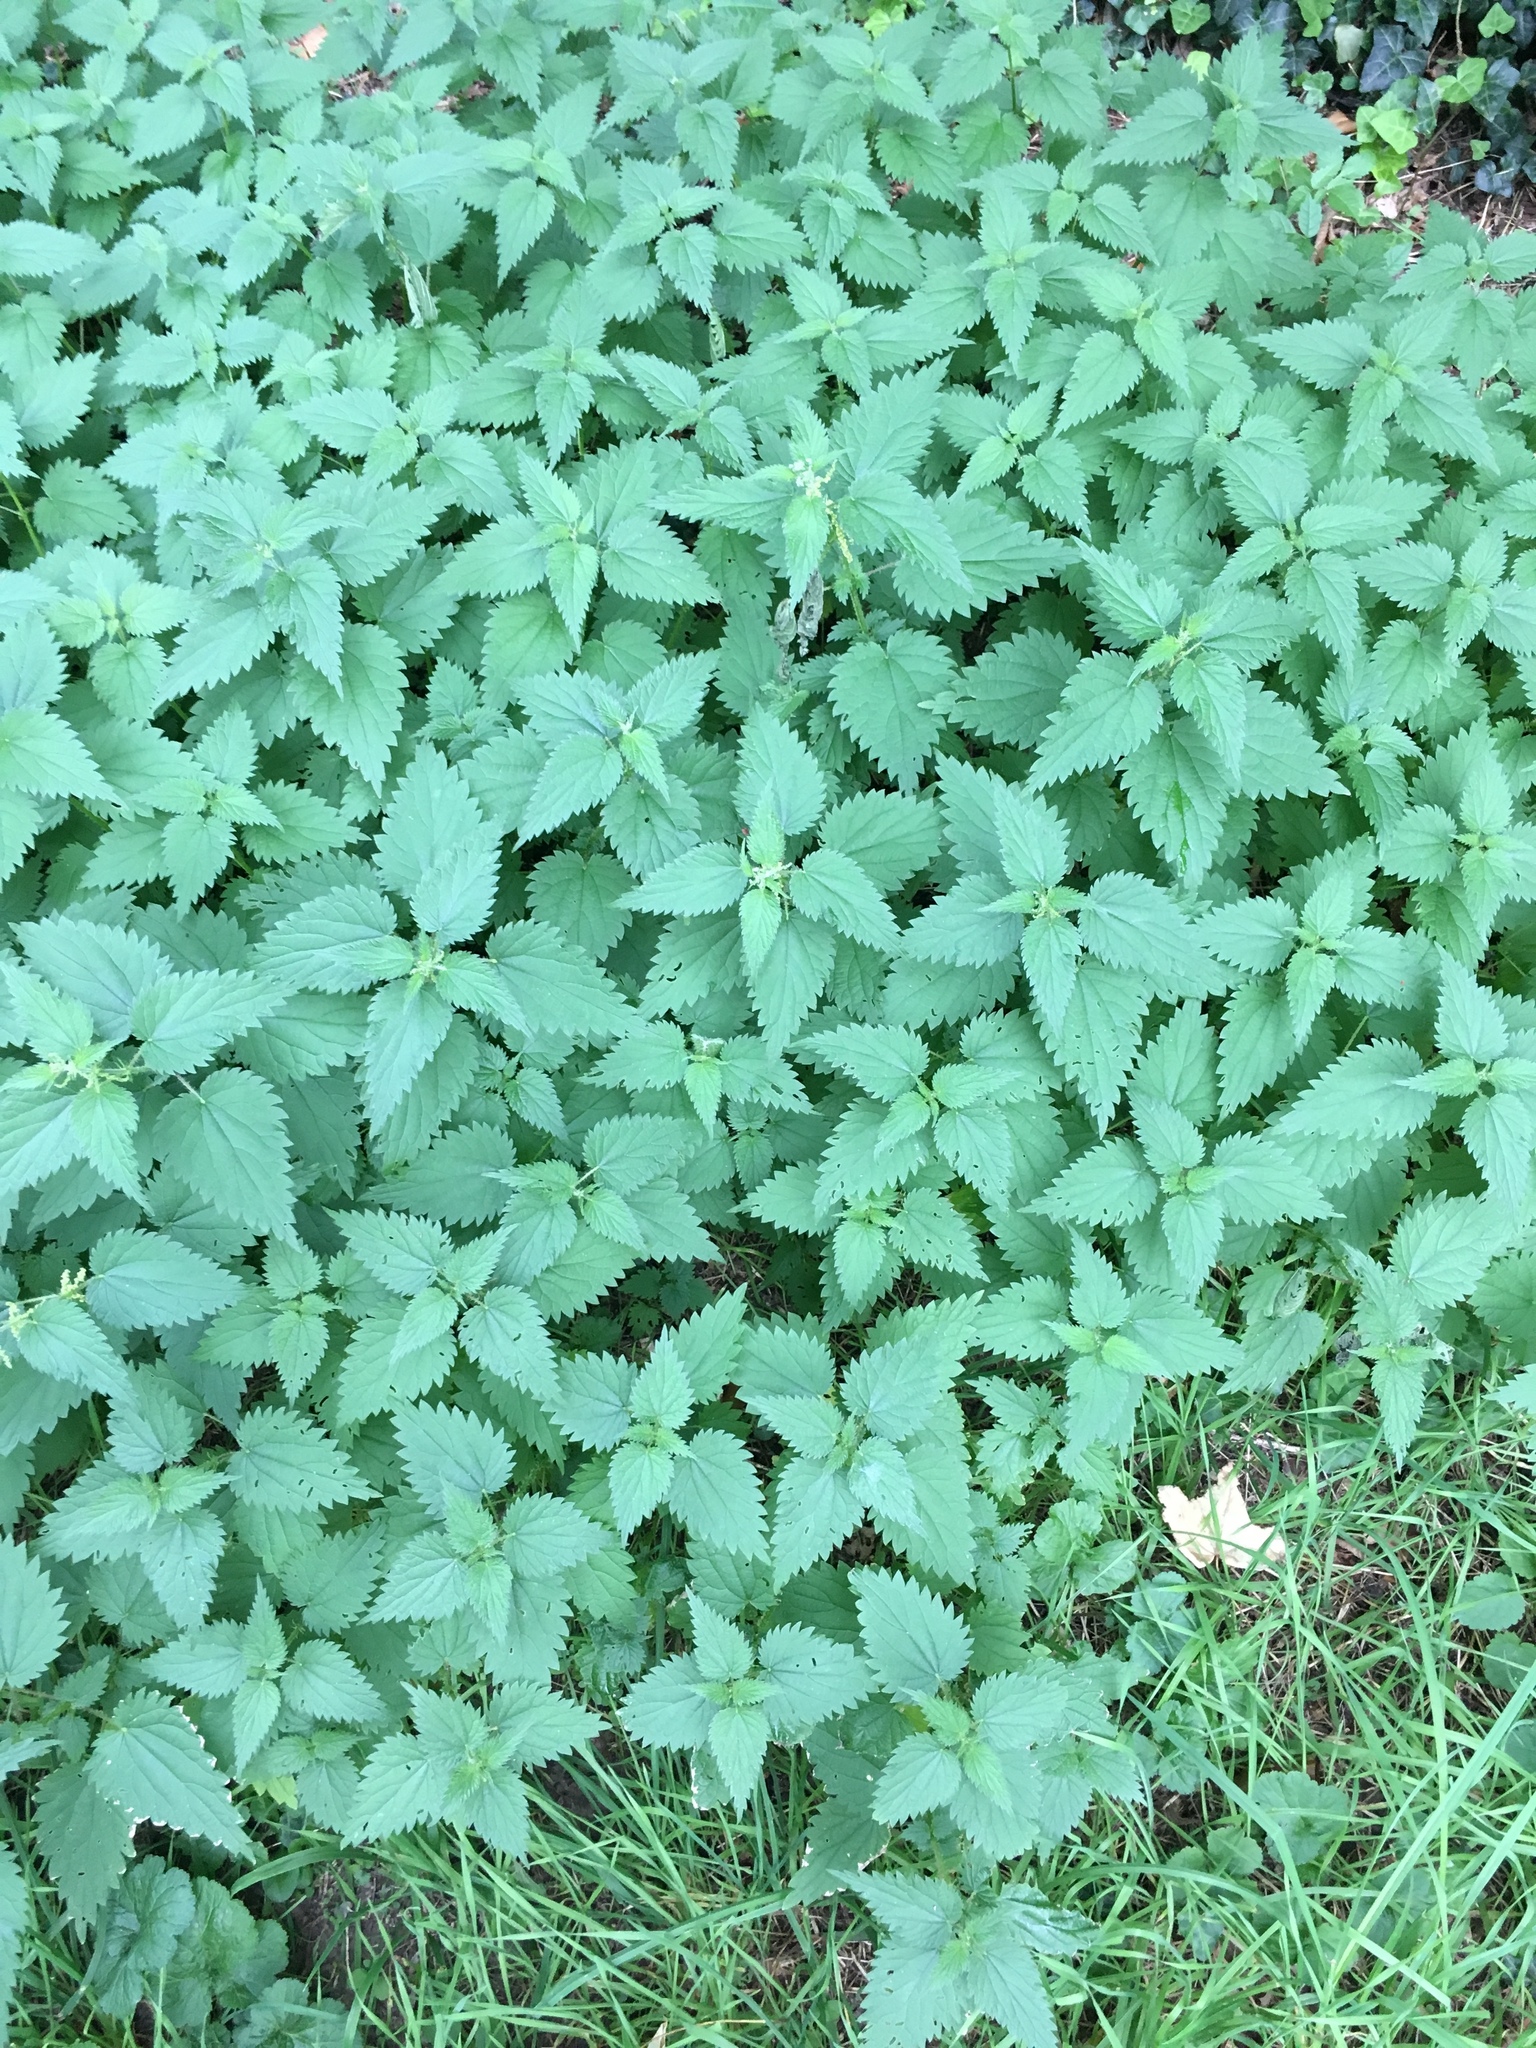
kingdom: Plantae
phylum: Tracheophyta
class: Magnoliopsida
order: Rosales
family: Urticaceae
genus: Urtica
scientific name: Urtica dioica
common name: Common nettle
